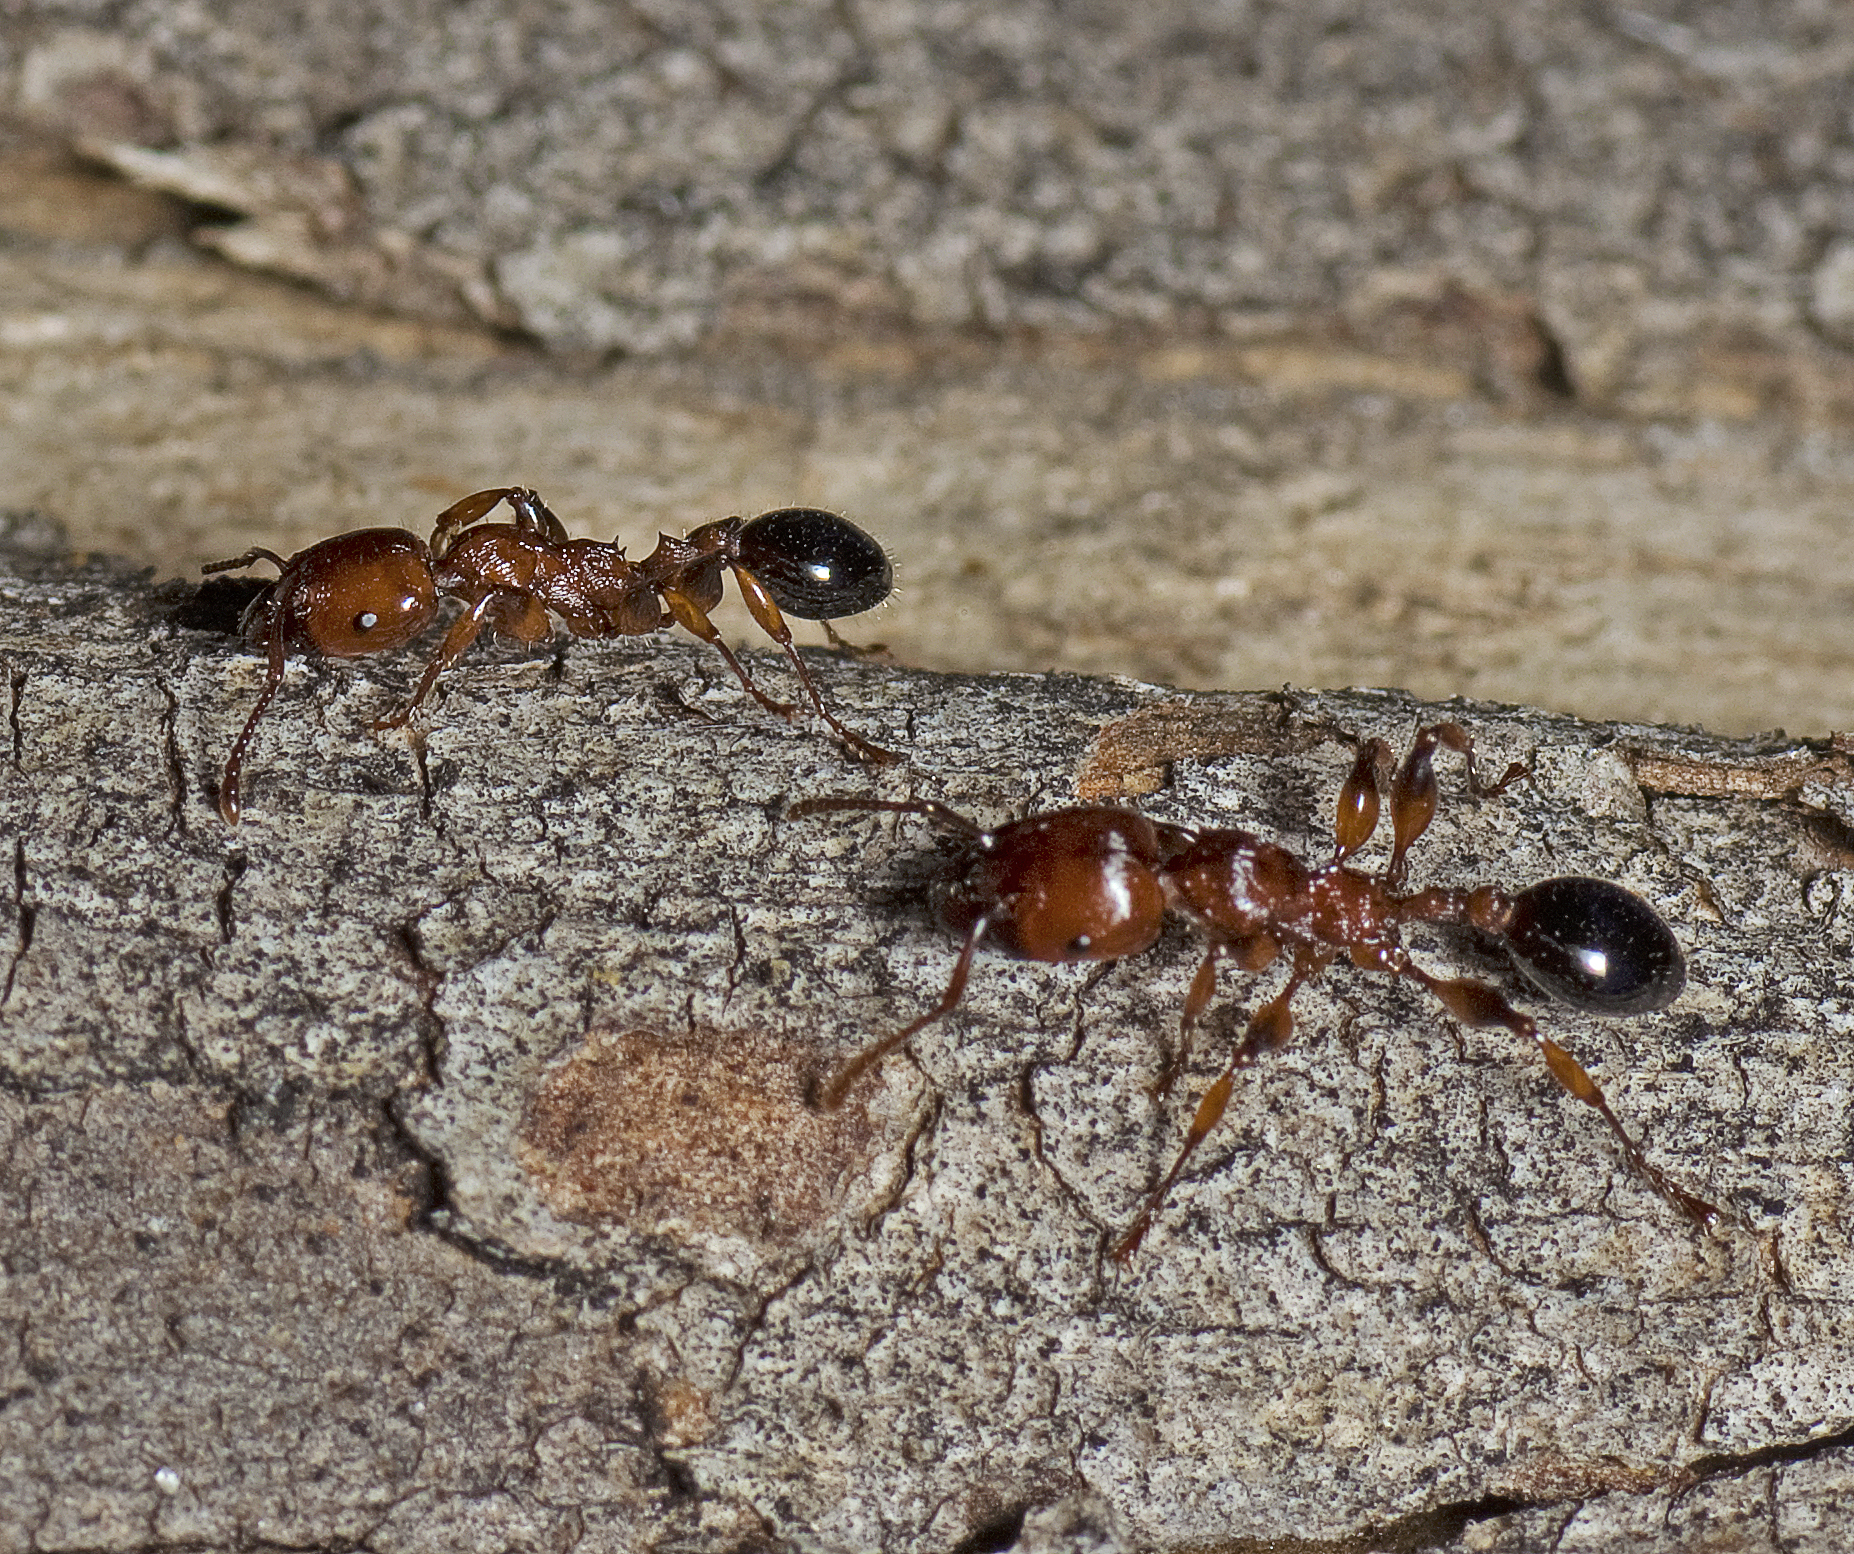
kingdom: Animalia
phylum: Arthropoda
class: Insecta
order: Hymenoptera
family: Formicidae
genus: Podomyrma
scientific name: Podomyrma gratiosa
